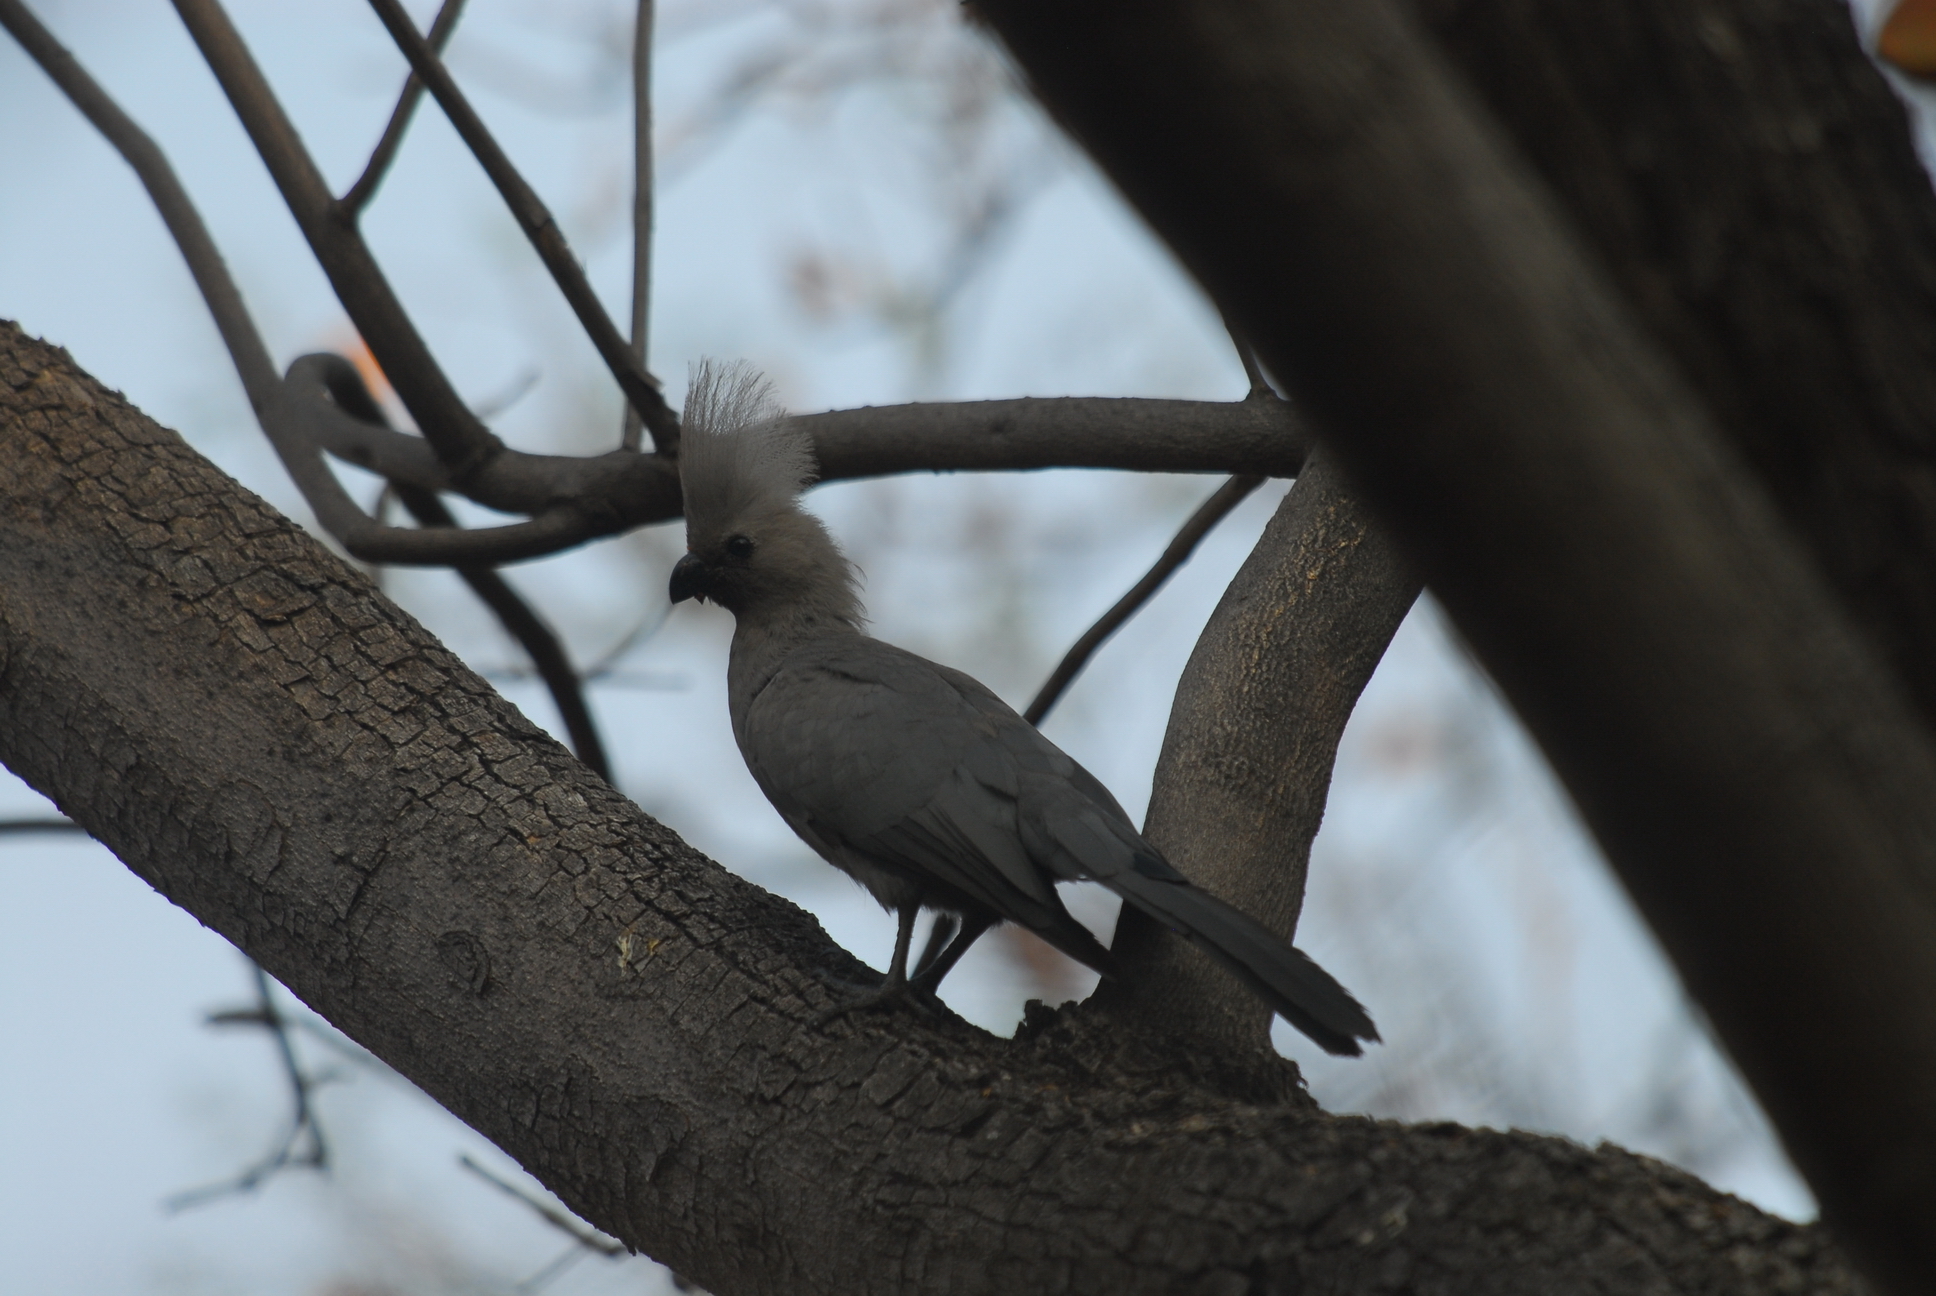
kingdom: Animalia
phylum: Chordata
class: Aves
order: Musophagiformes
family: Musophagidae
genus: Corythaixoides
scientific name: Corythaixoides concolor
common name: Grey go-away-bird
